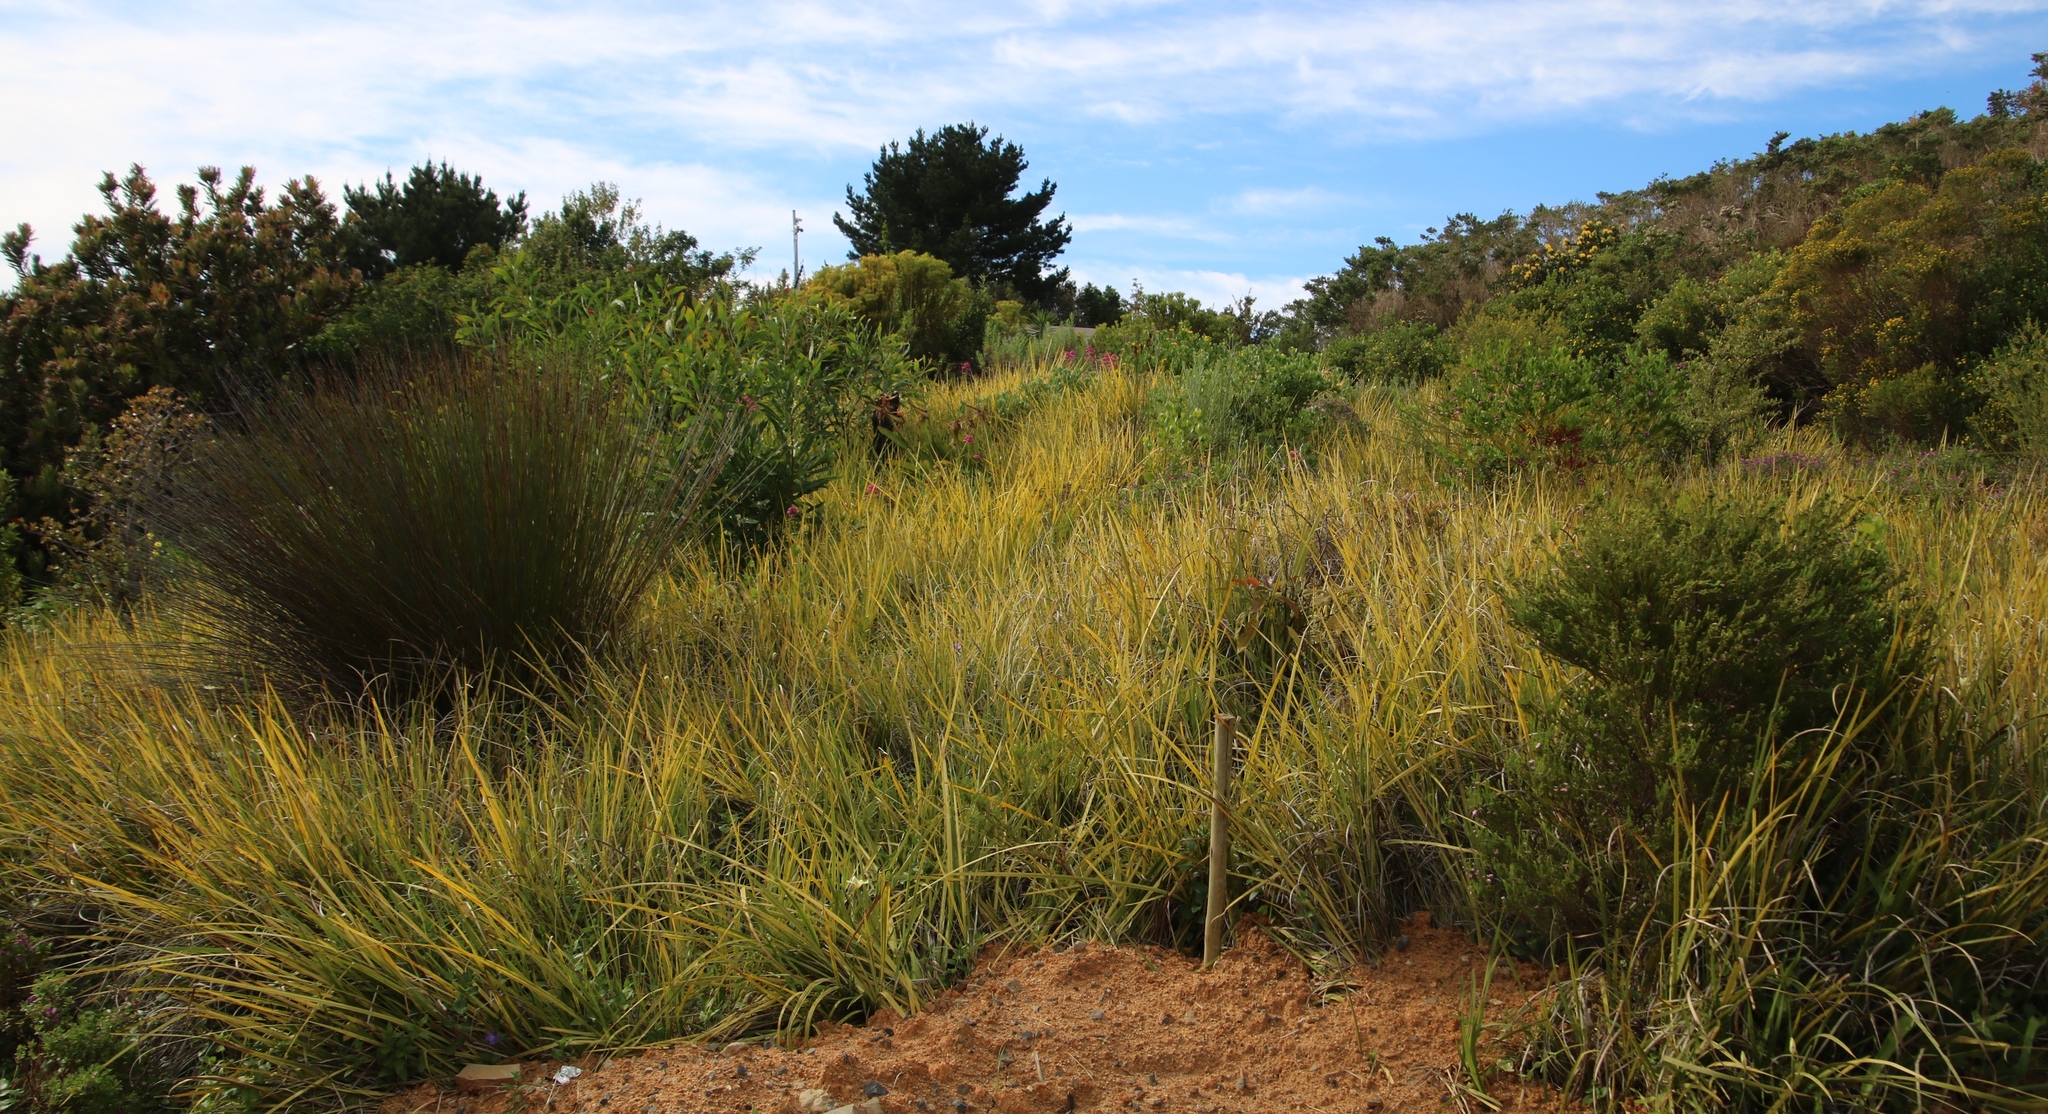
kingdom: Plantae
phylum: Tracheophyta
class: Magnoliopsida
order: Dipsacales
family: Caprifoliaceae
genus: Centranthus
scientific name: Centranthus ruber
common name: Red valerian
